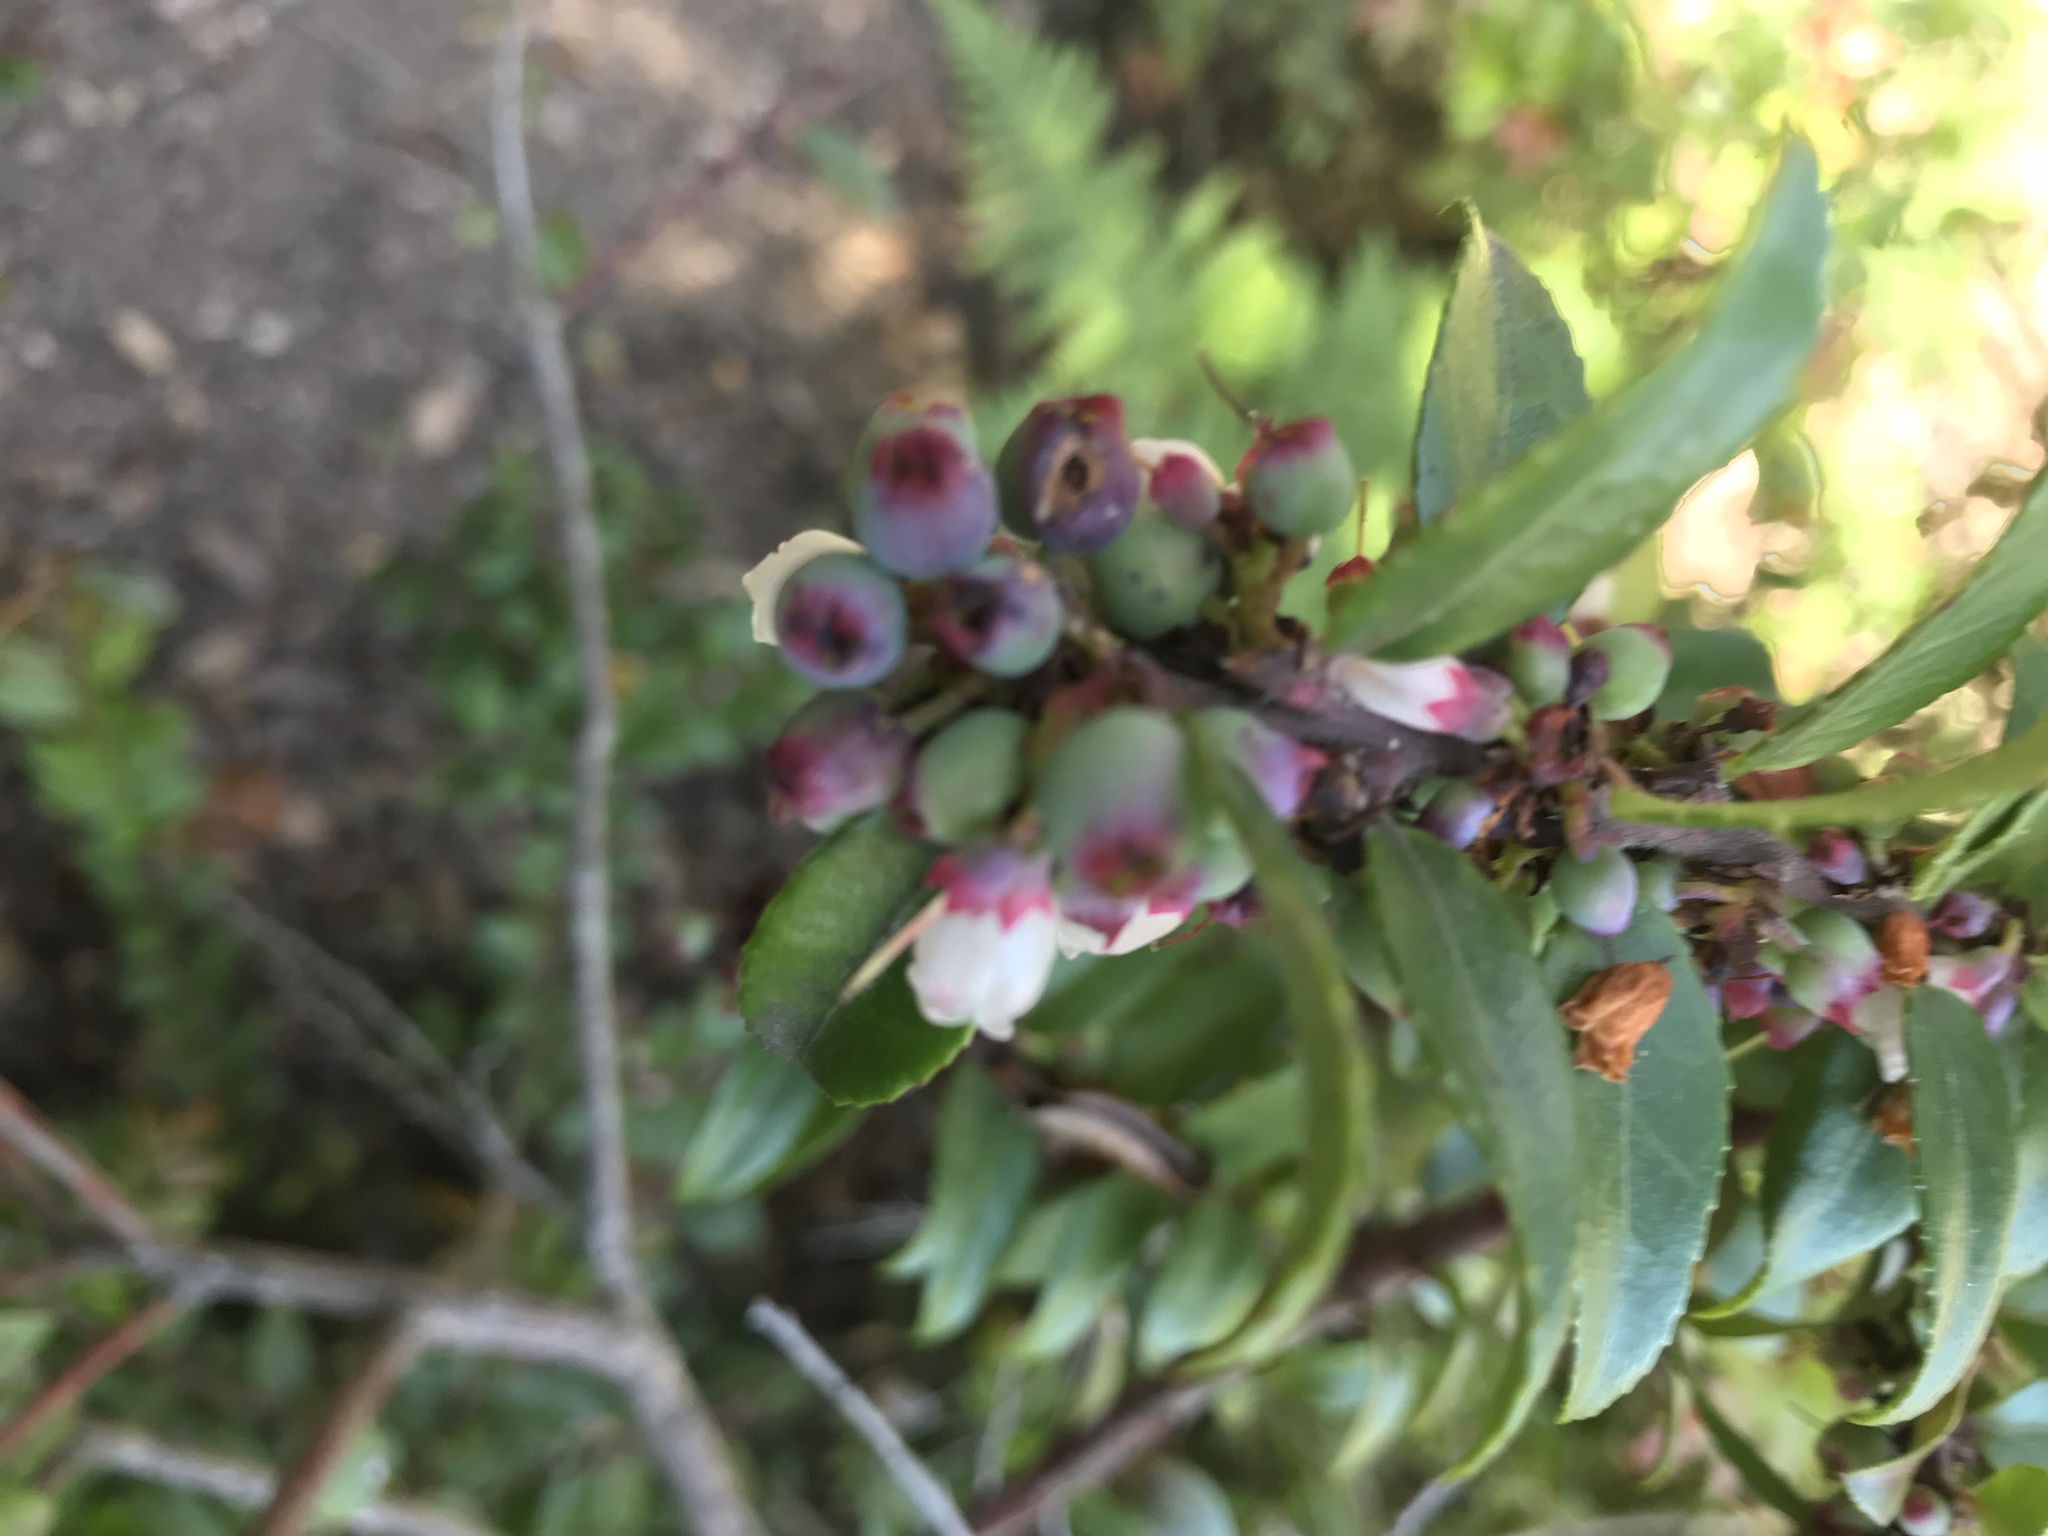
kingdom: Plantae
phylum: Tracheophyta
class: Magnoliopsida
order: Ericales
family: Ericaceae
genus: Vaccinium
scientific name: Vaccinium ovatum
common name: California-huckleberry
